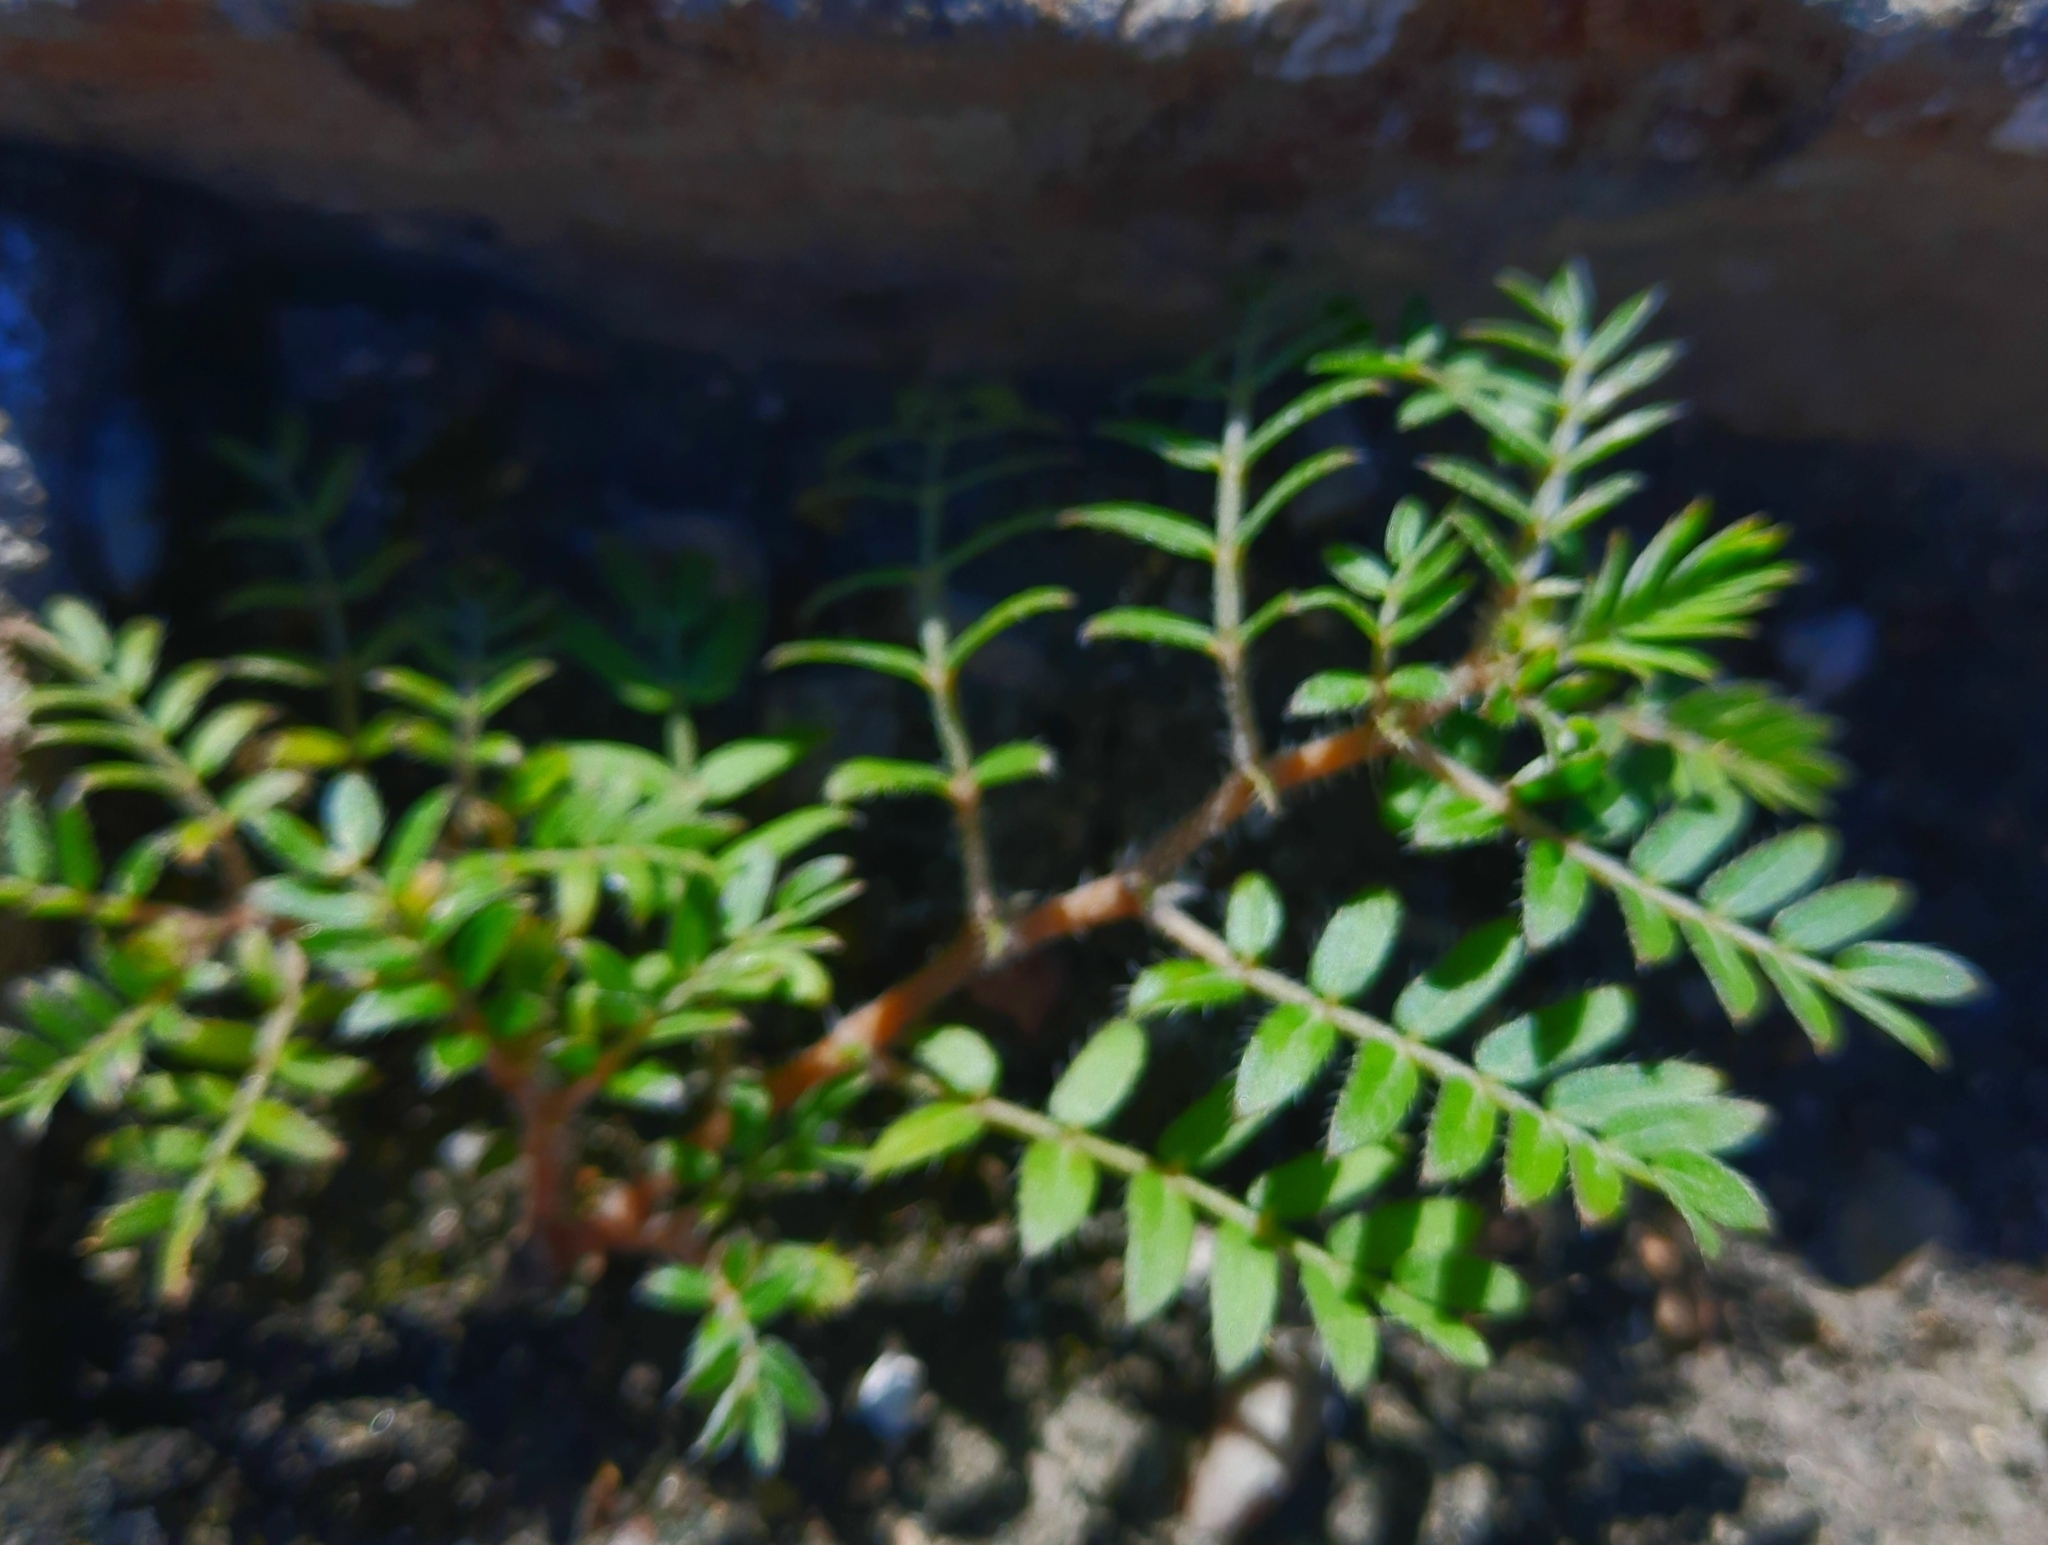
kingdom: Plantae
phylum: Tracheophyta
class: Magnoliopsida
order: Zygophyllales
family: Zygophyllaceae
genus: Tribulus
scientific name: Tribulus terrestris
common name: Puncturevine
